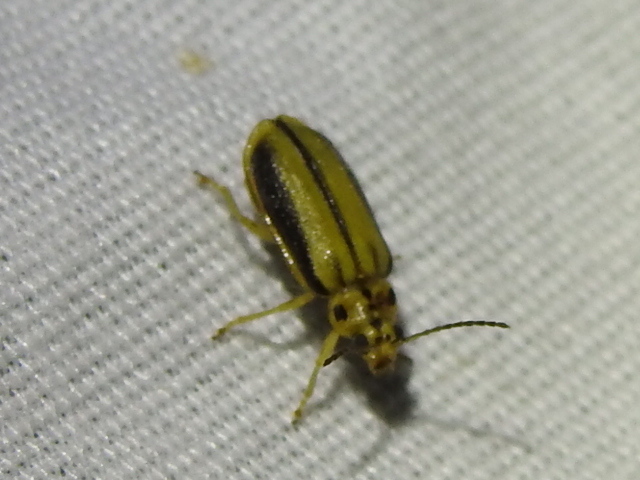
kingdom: Animalia
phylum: Arthropoda
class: Insecta
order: Coleoptera
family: Chrysomelidae
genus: Xanthogaleruca
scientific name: Xanthogaleruca luteola
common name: Elm leaf beetle
